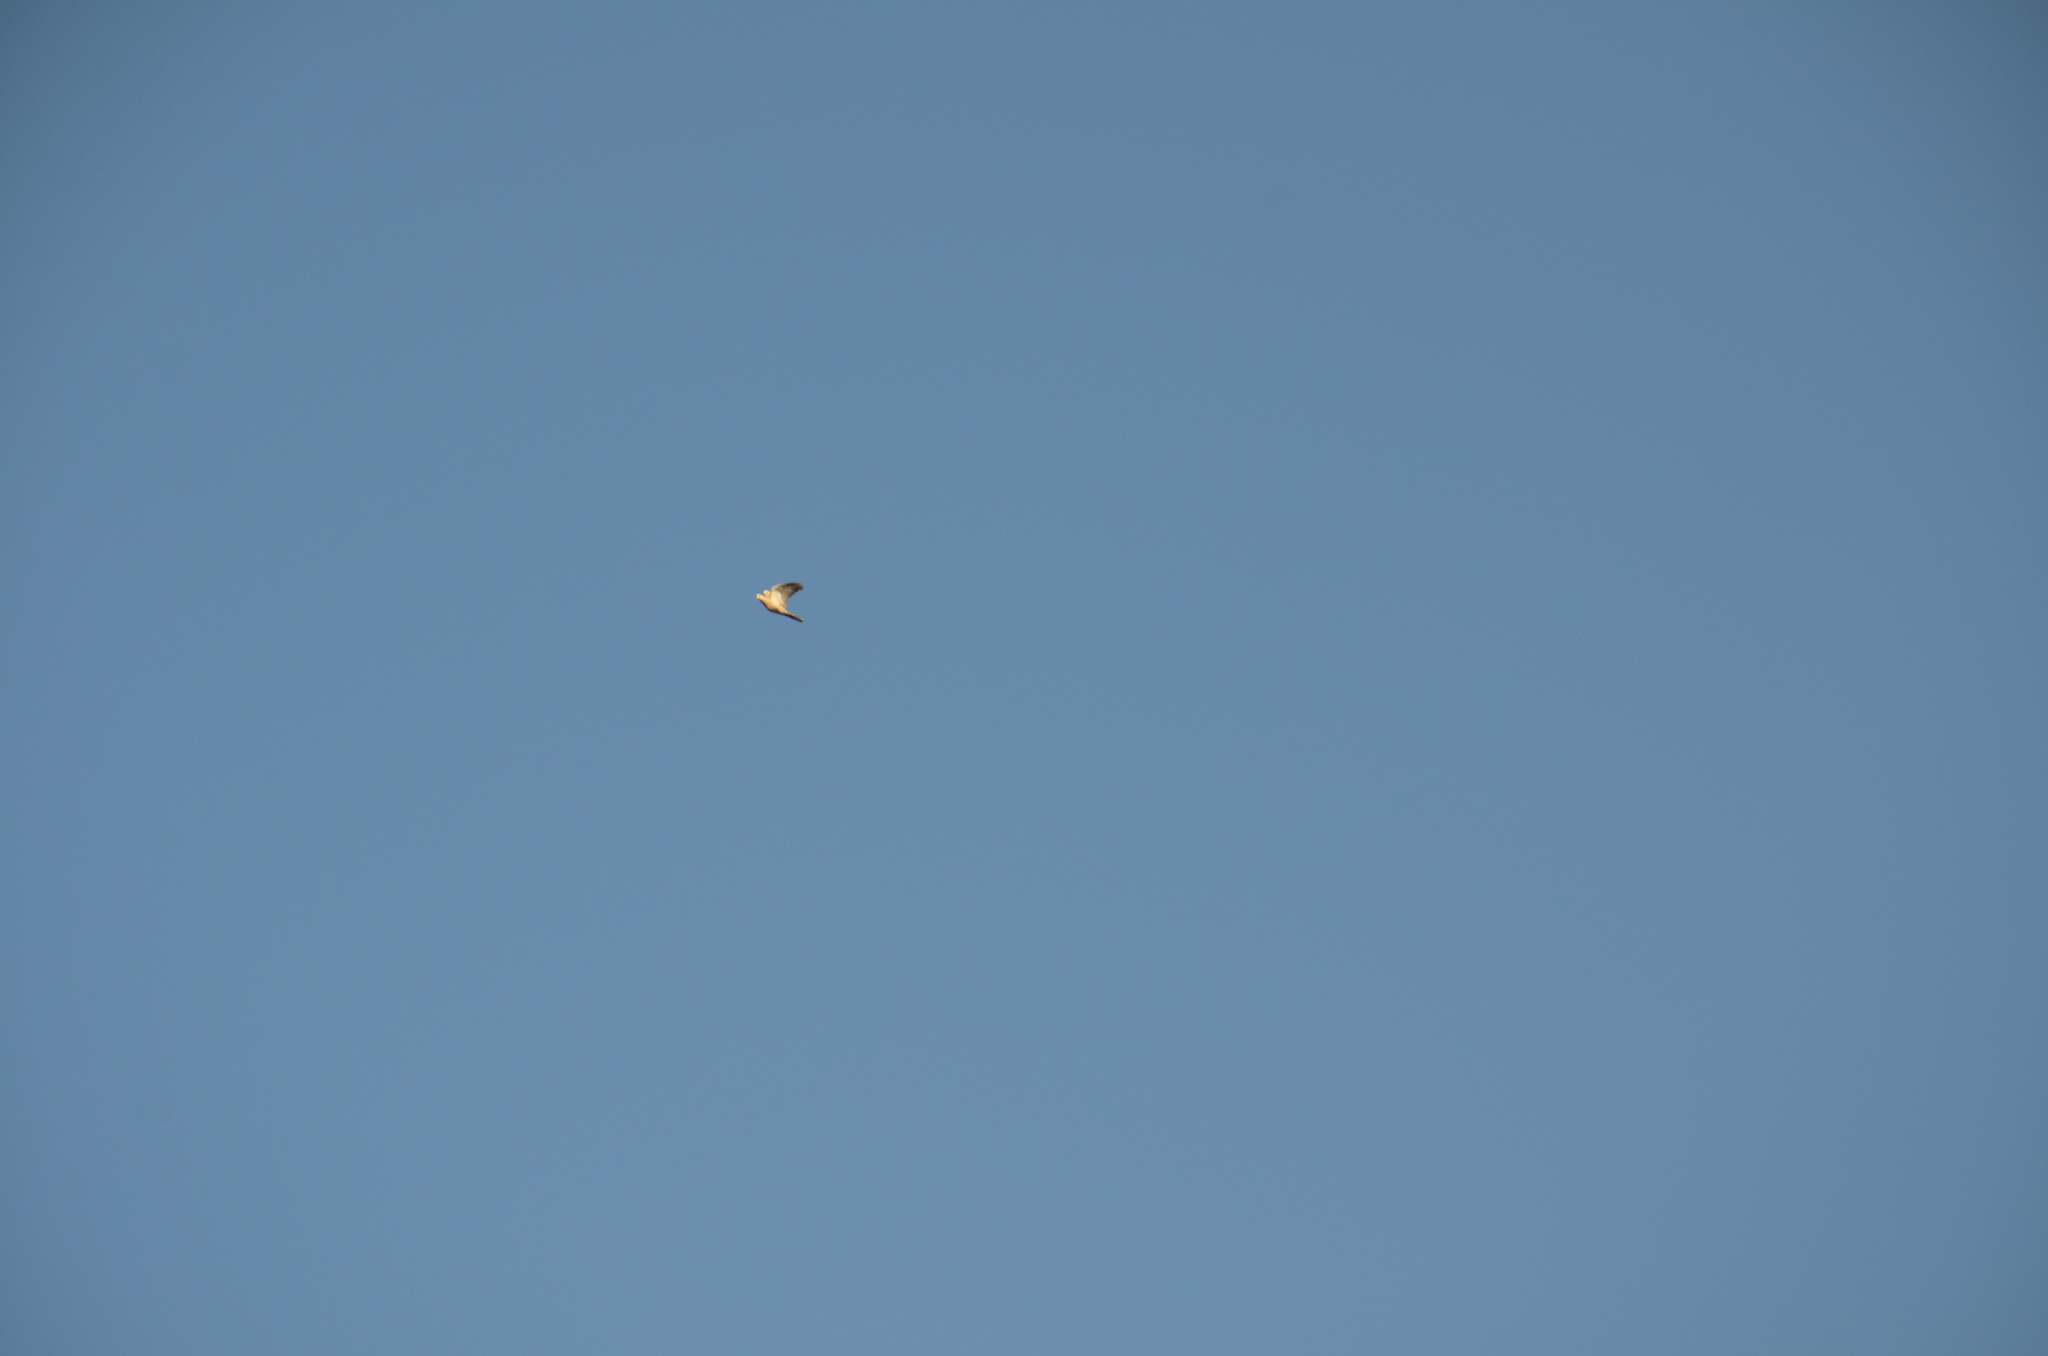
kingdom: Animalia
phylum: Chordata
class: Aves
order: Columbiformes
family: Columbidae
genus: Streptopelia
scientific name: Streptopelia decaocto
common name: Eurasian collared dove
